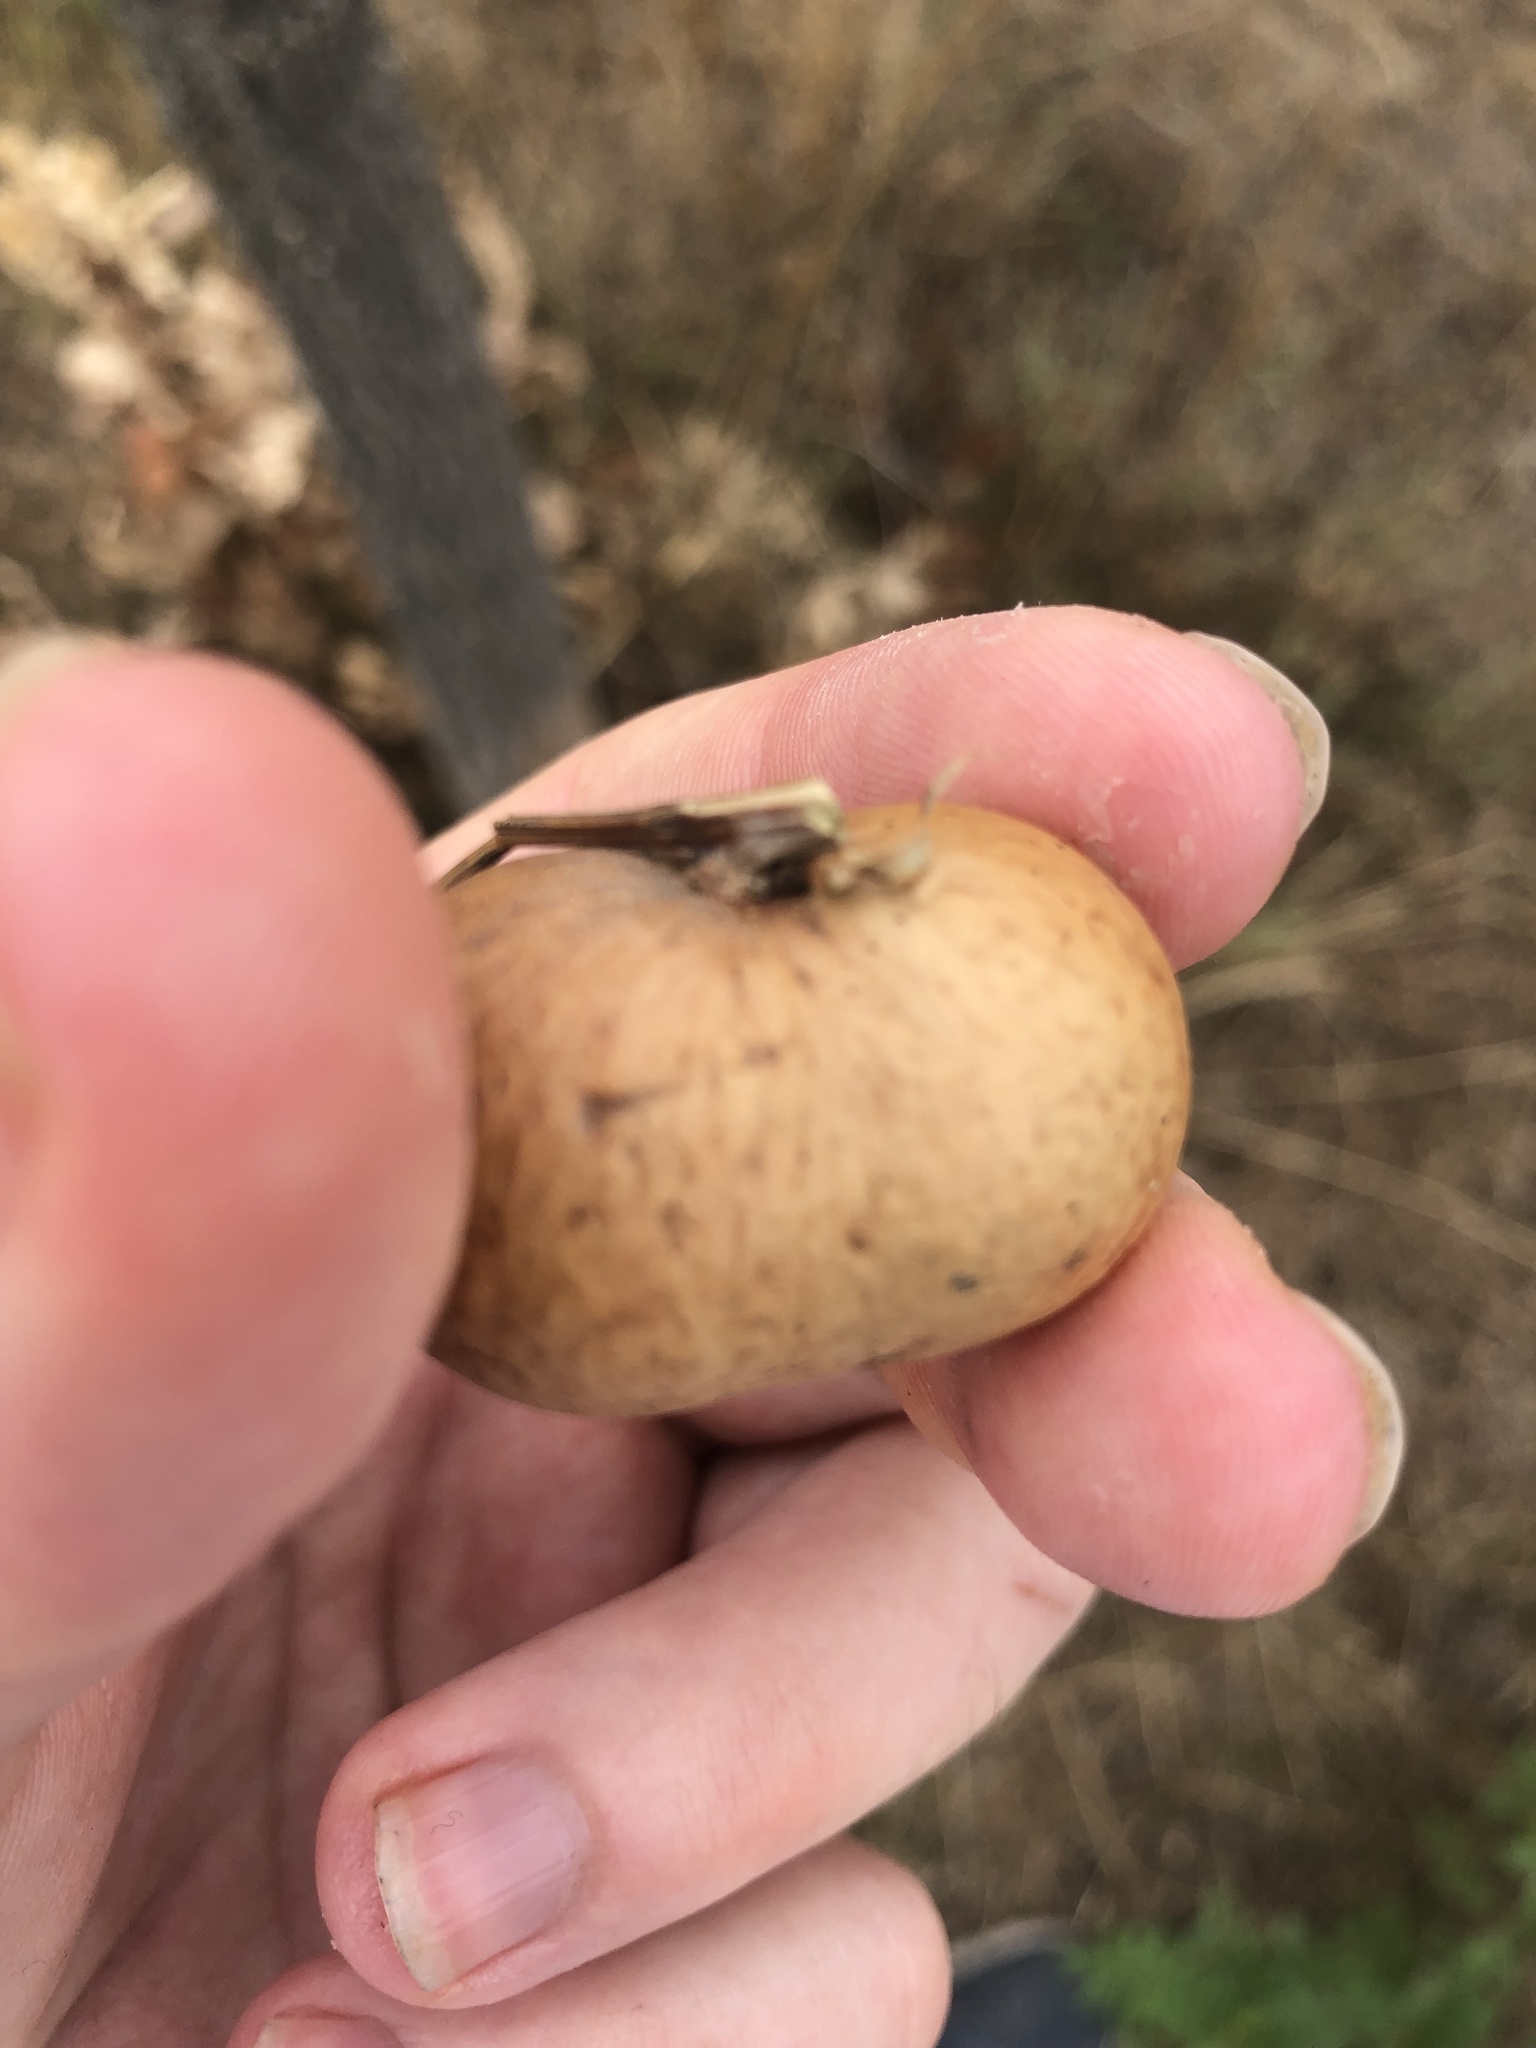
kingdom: Animalia
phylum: Arthropoda
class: Insecta
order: Hymenoptera
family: Cynipidae
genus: Andricus
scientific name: Andricus kollari
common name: Marble gall
